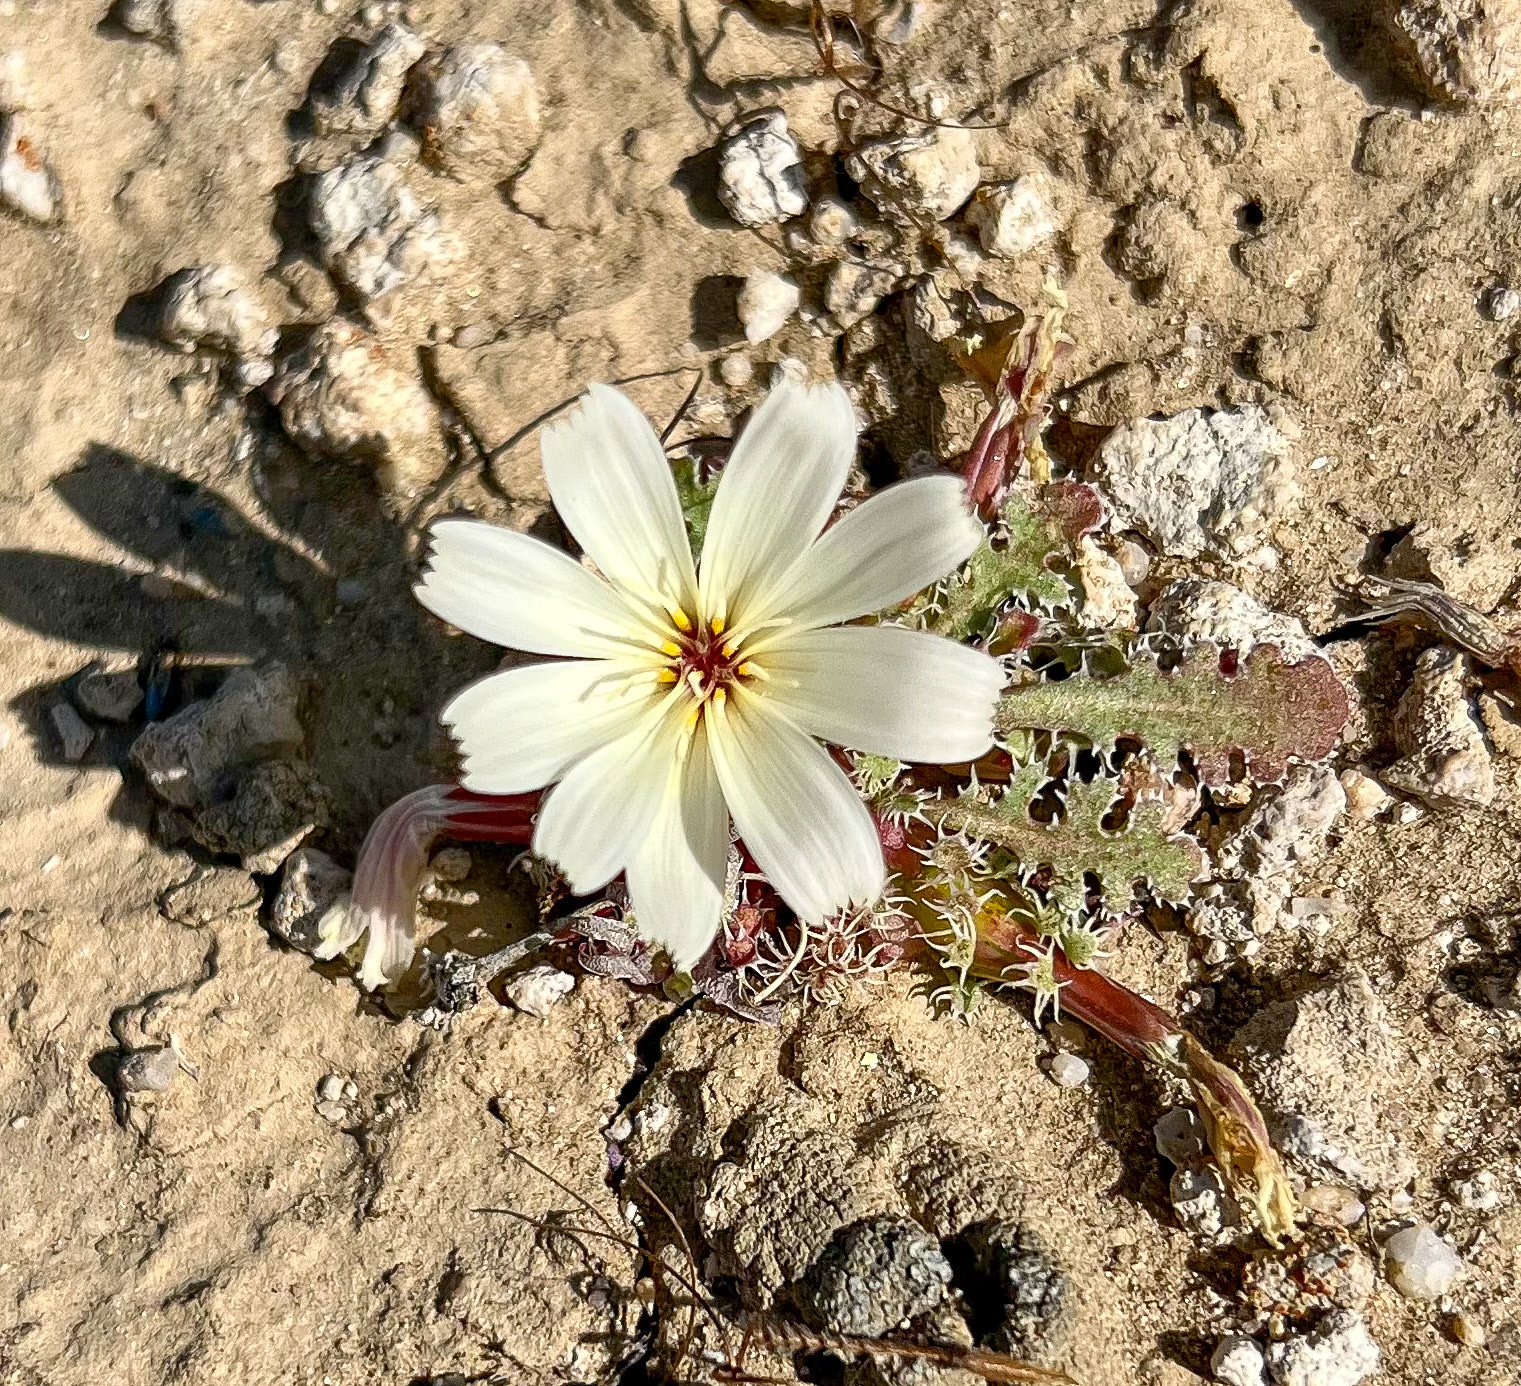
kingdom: Plantae
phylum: Tracheophyta
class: Magnoliopsida
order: Asterales
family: Asteraceae
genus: Anisocoma
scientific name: Anisocoma acaulis
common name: Scalebud
